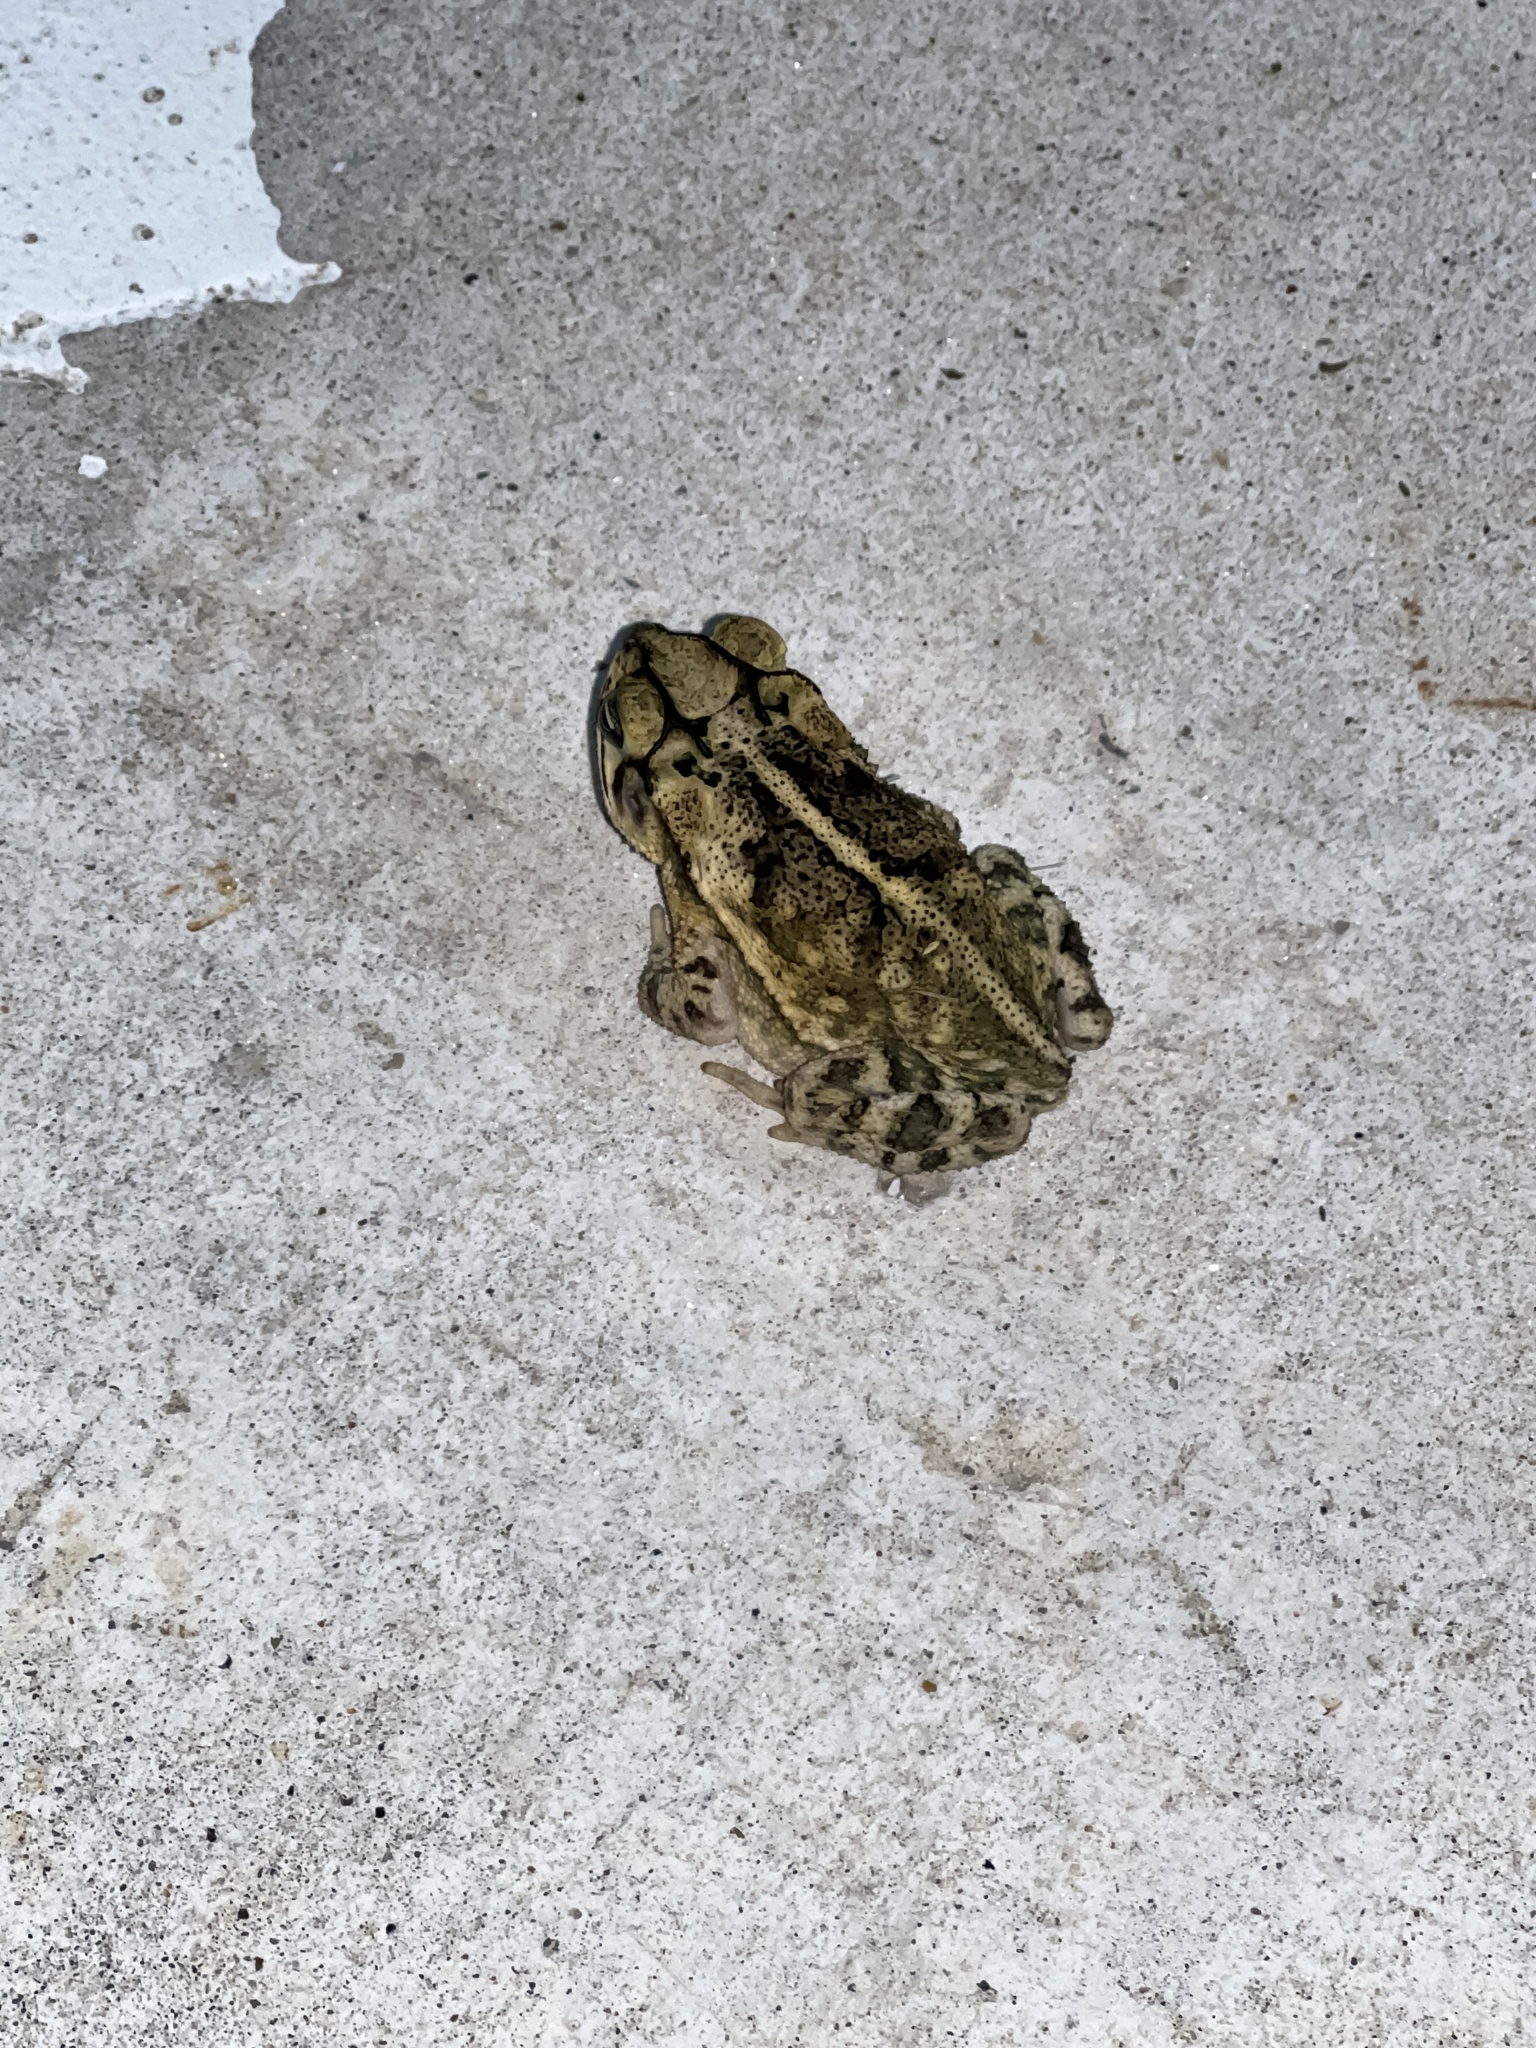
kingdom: Animalia
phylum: Chordata
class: Amphibia
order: Anura
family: Bufonidae
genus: Incilius
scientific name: Incilius nebulifer
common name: Gulf coast toad
